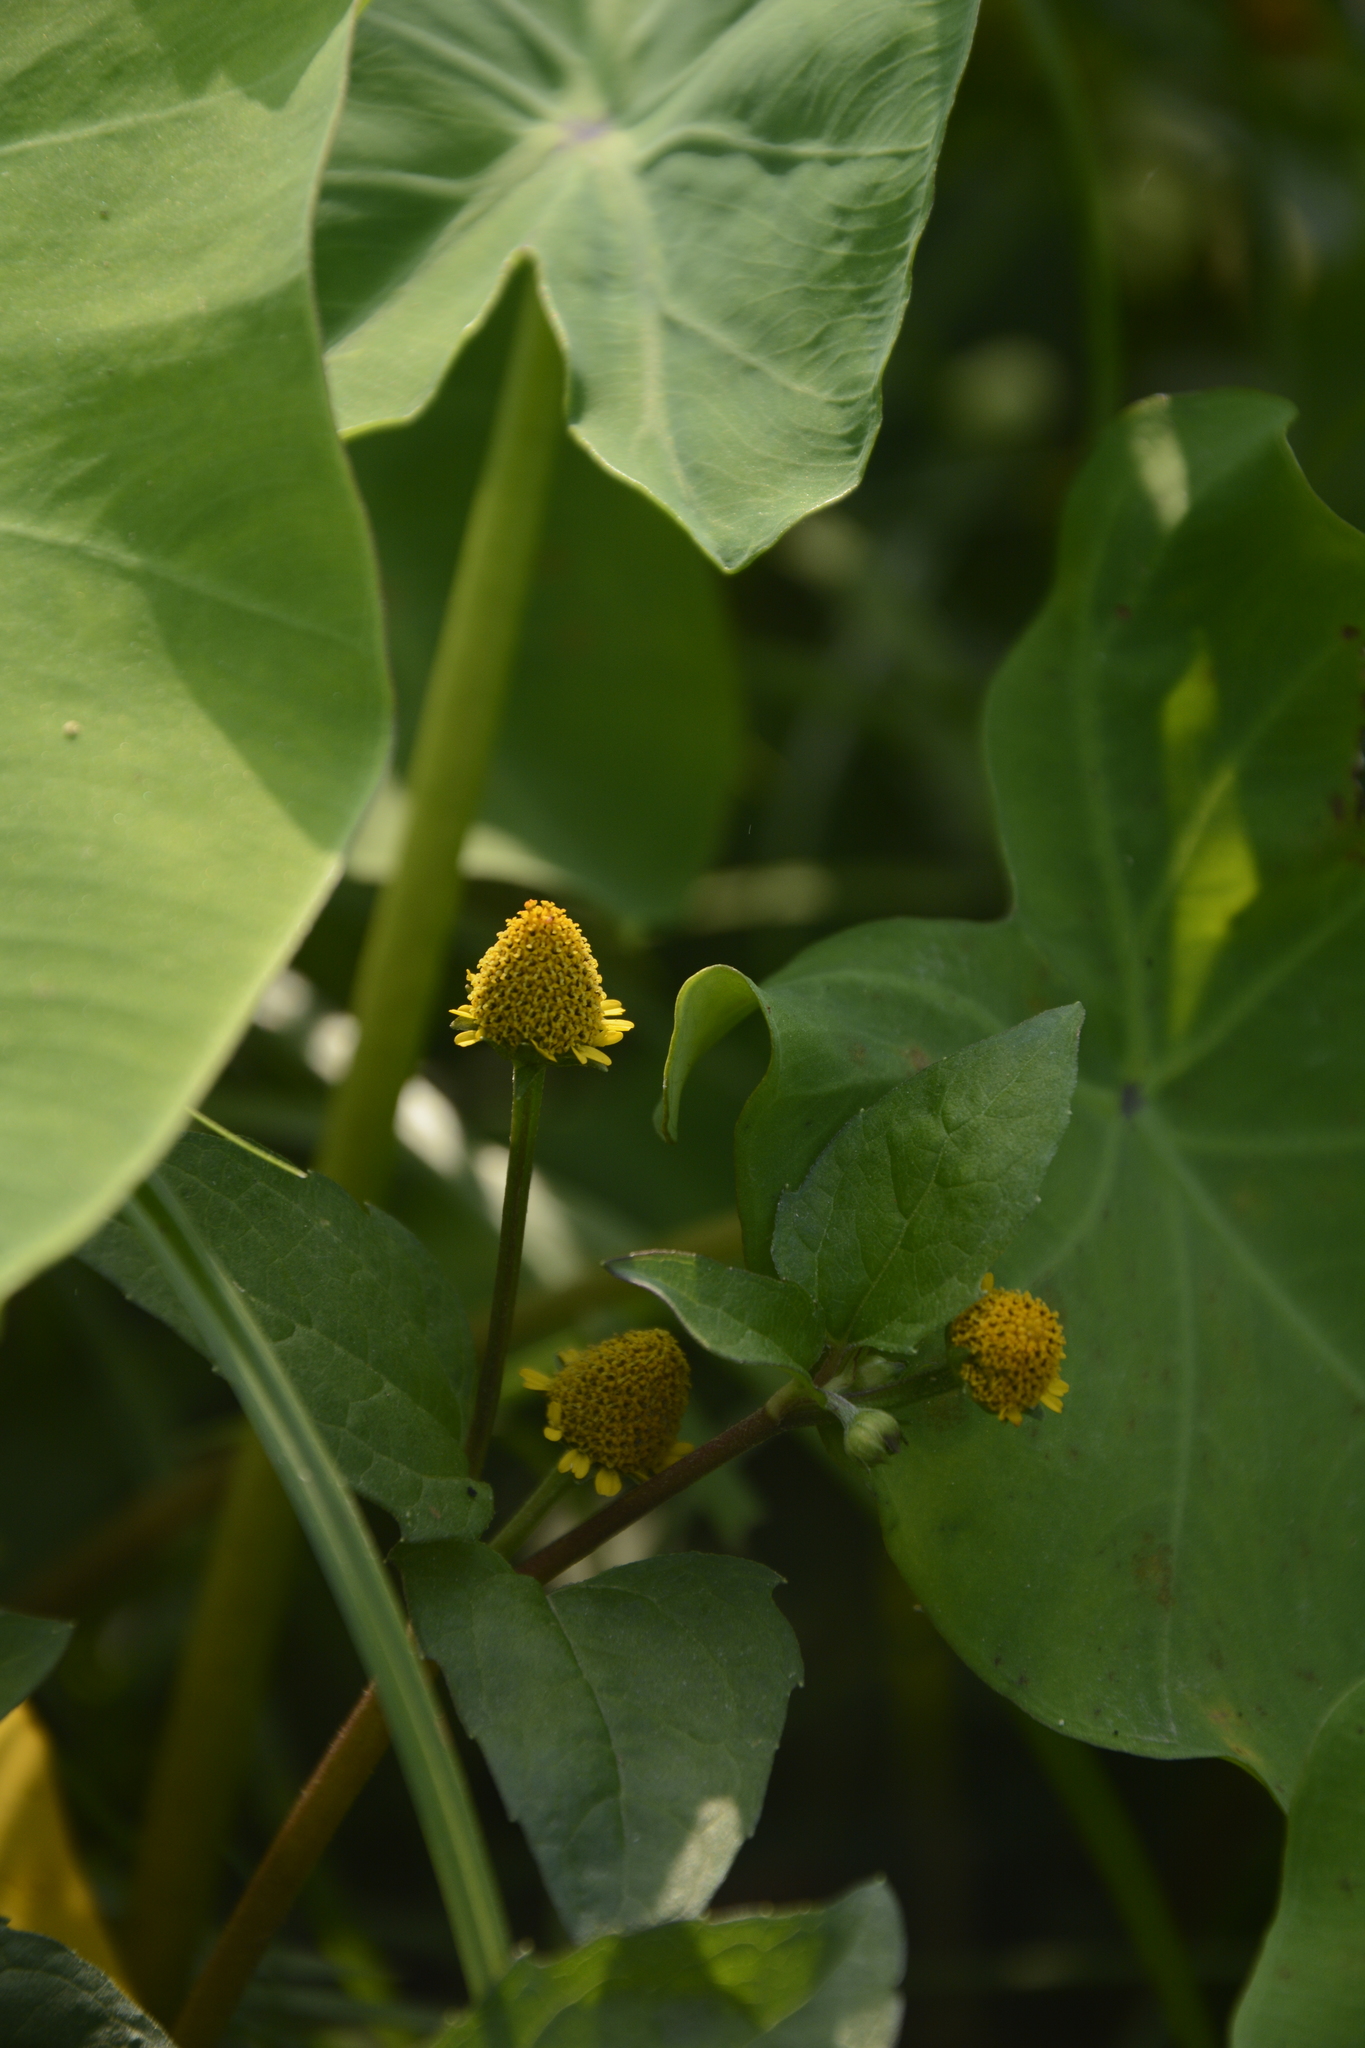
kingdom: Plantae
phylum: Tracheophyta
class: Magnoliopsida
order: Asterales
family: Asteraceae
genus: Acmella
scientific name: Acmella uliginosa
